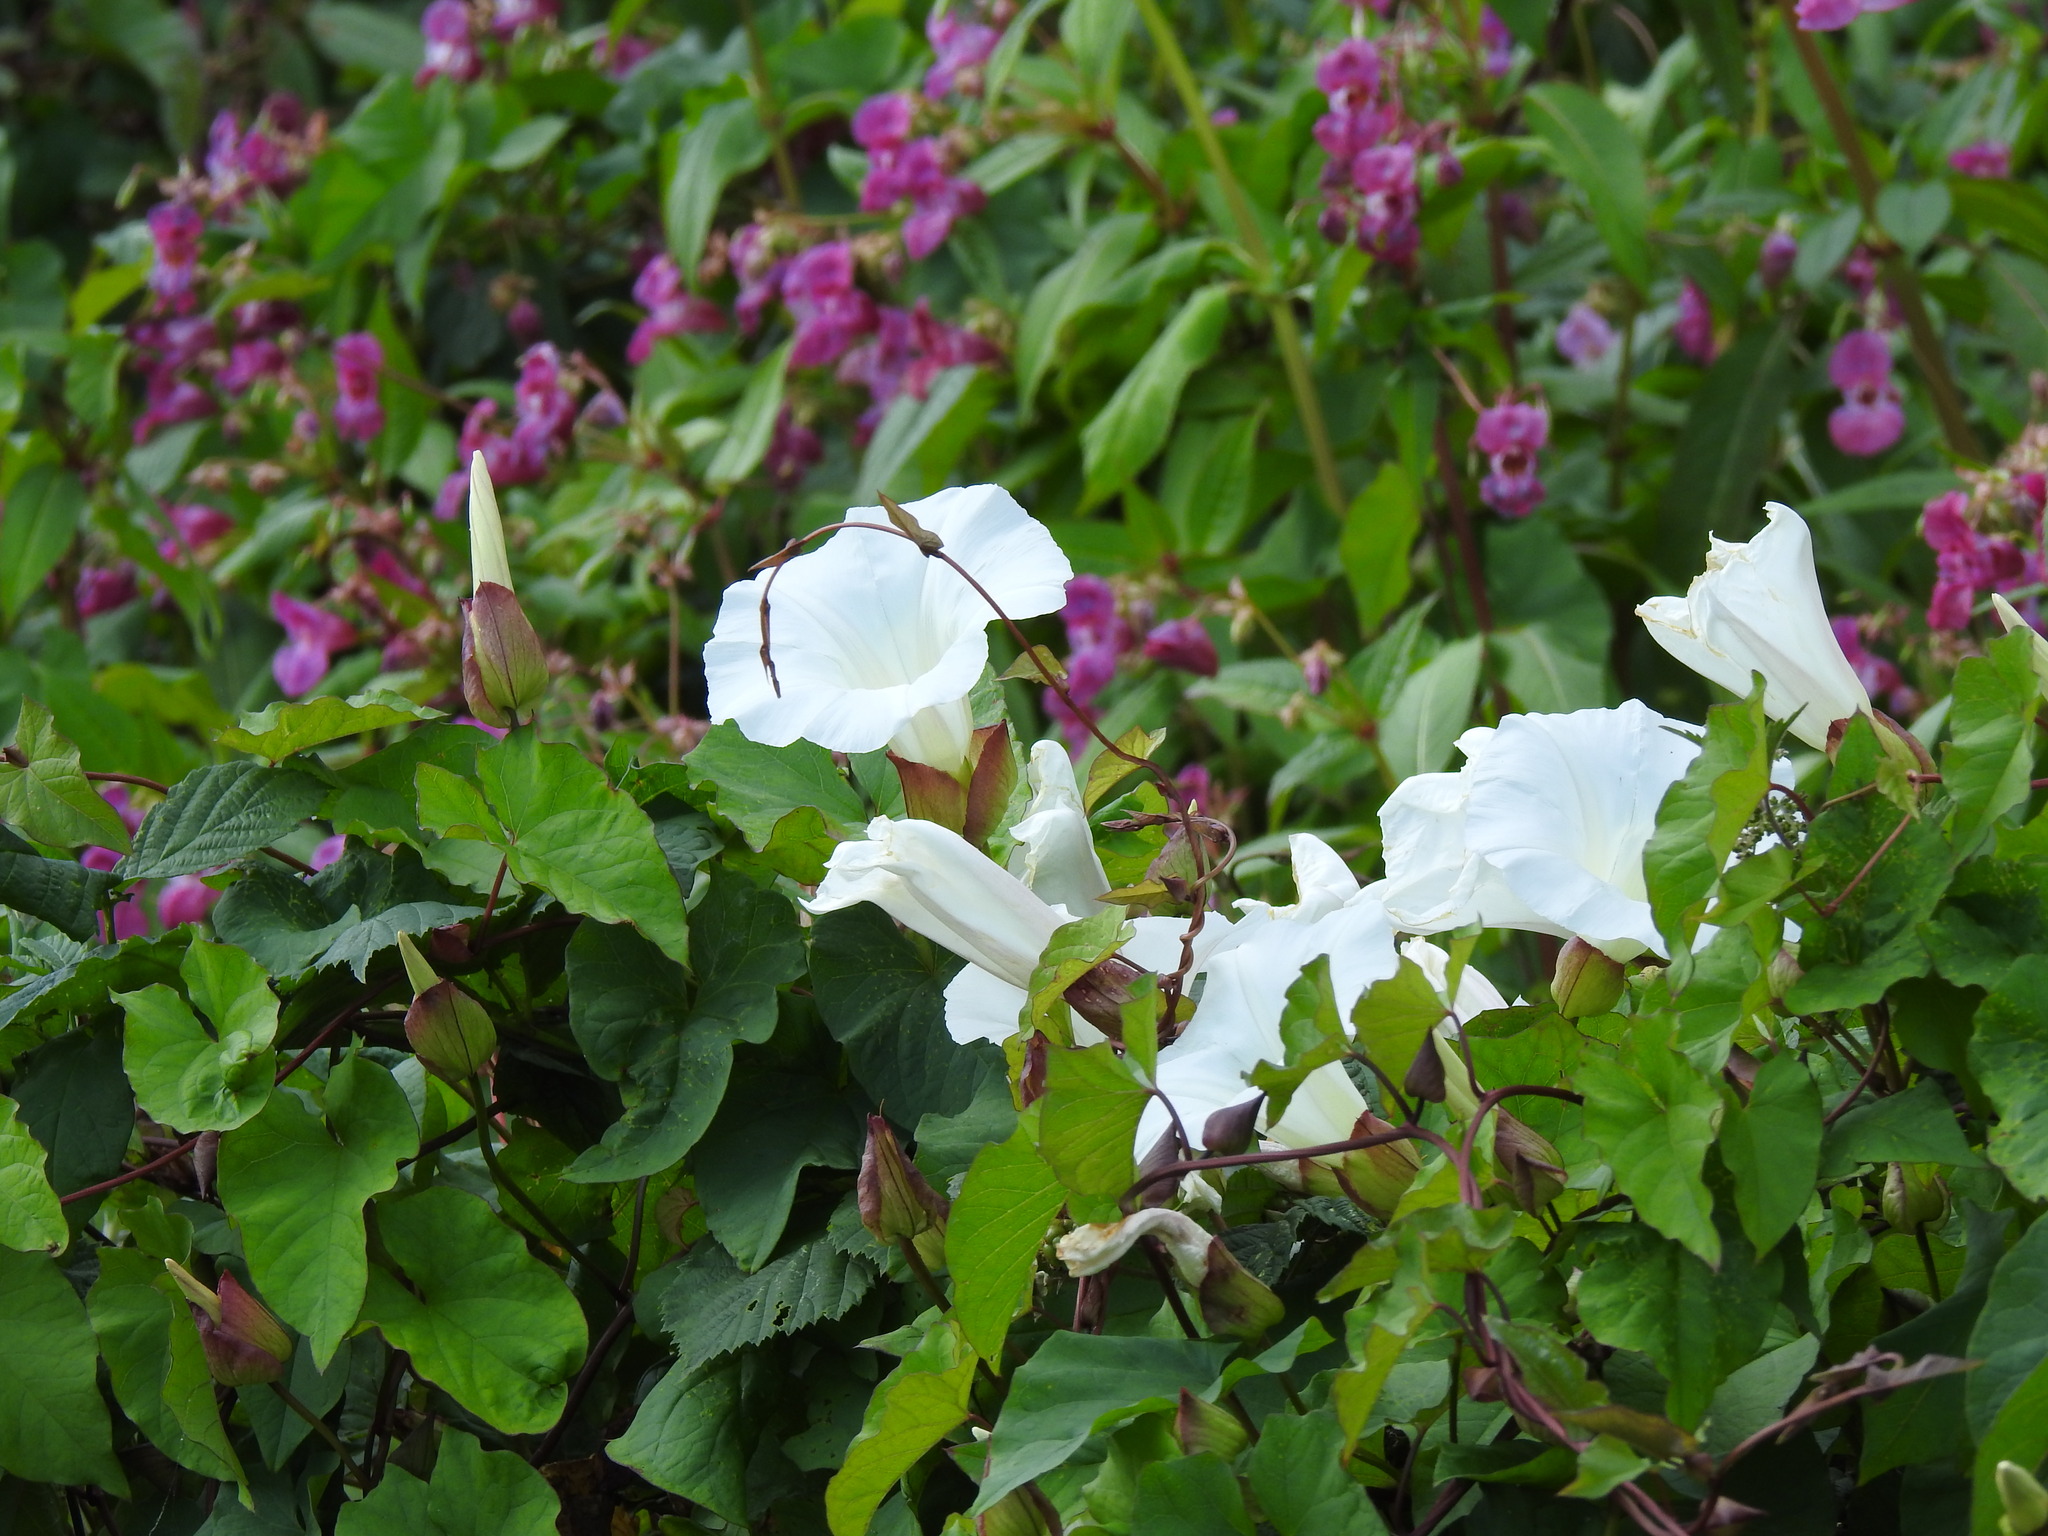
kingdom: Plantae
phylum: Tracheophyta
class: Magnoliopsida
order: Solanales
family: Convolvulaceae
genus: Calystegia
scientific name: Calystegia silvatica
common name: Large bindweed
